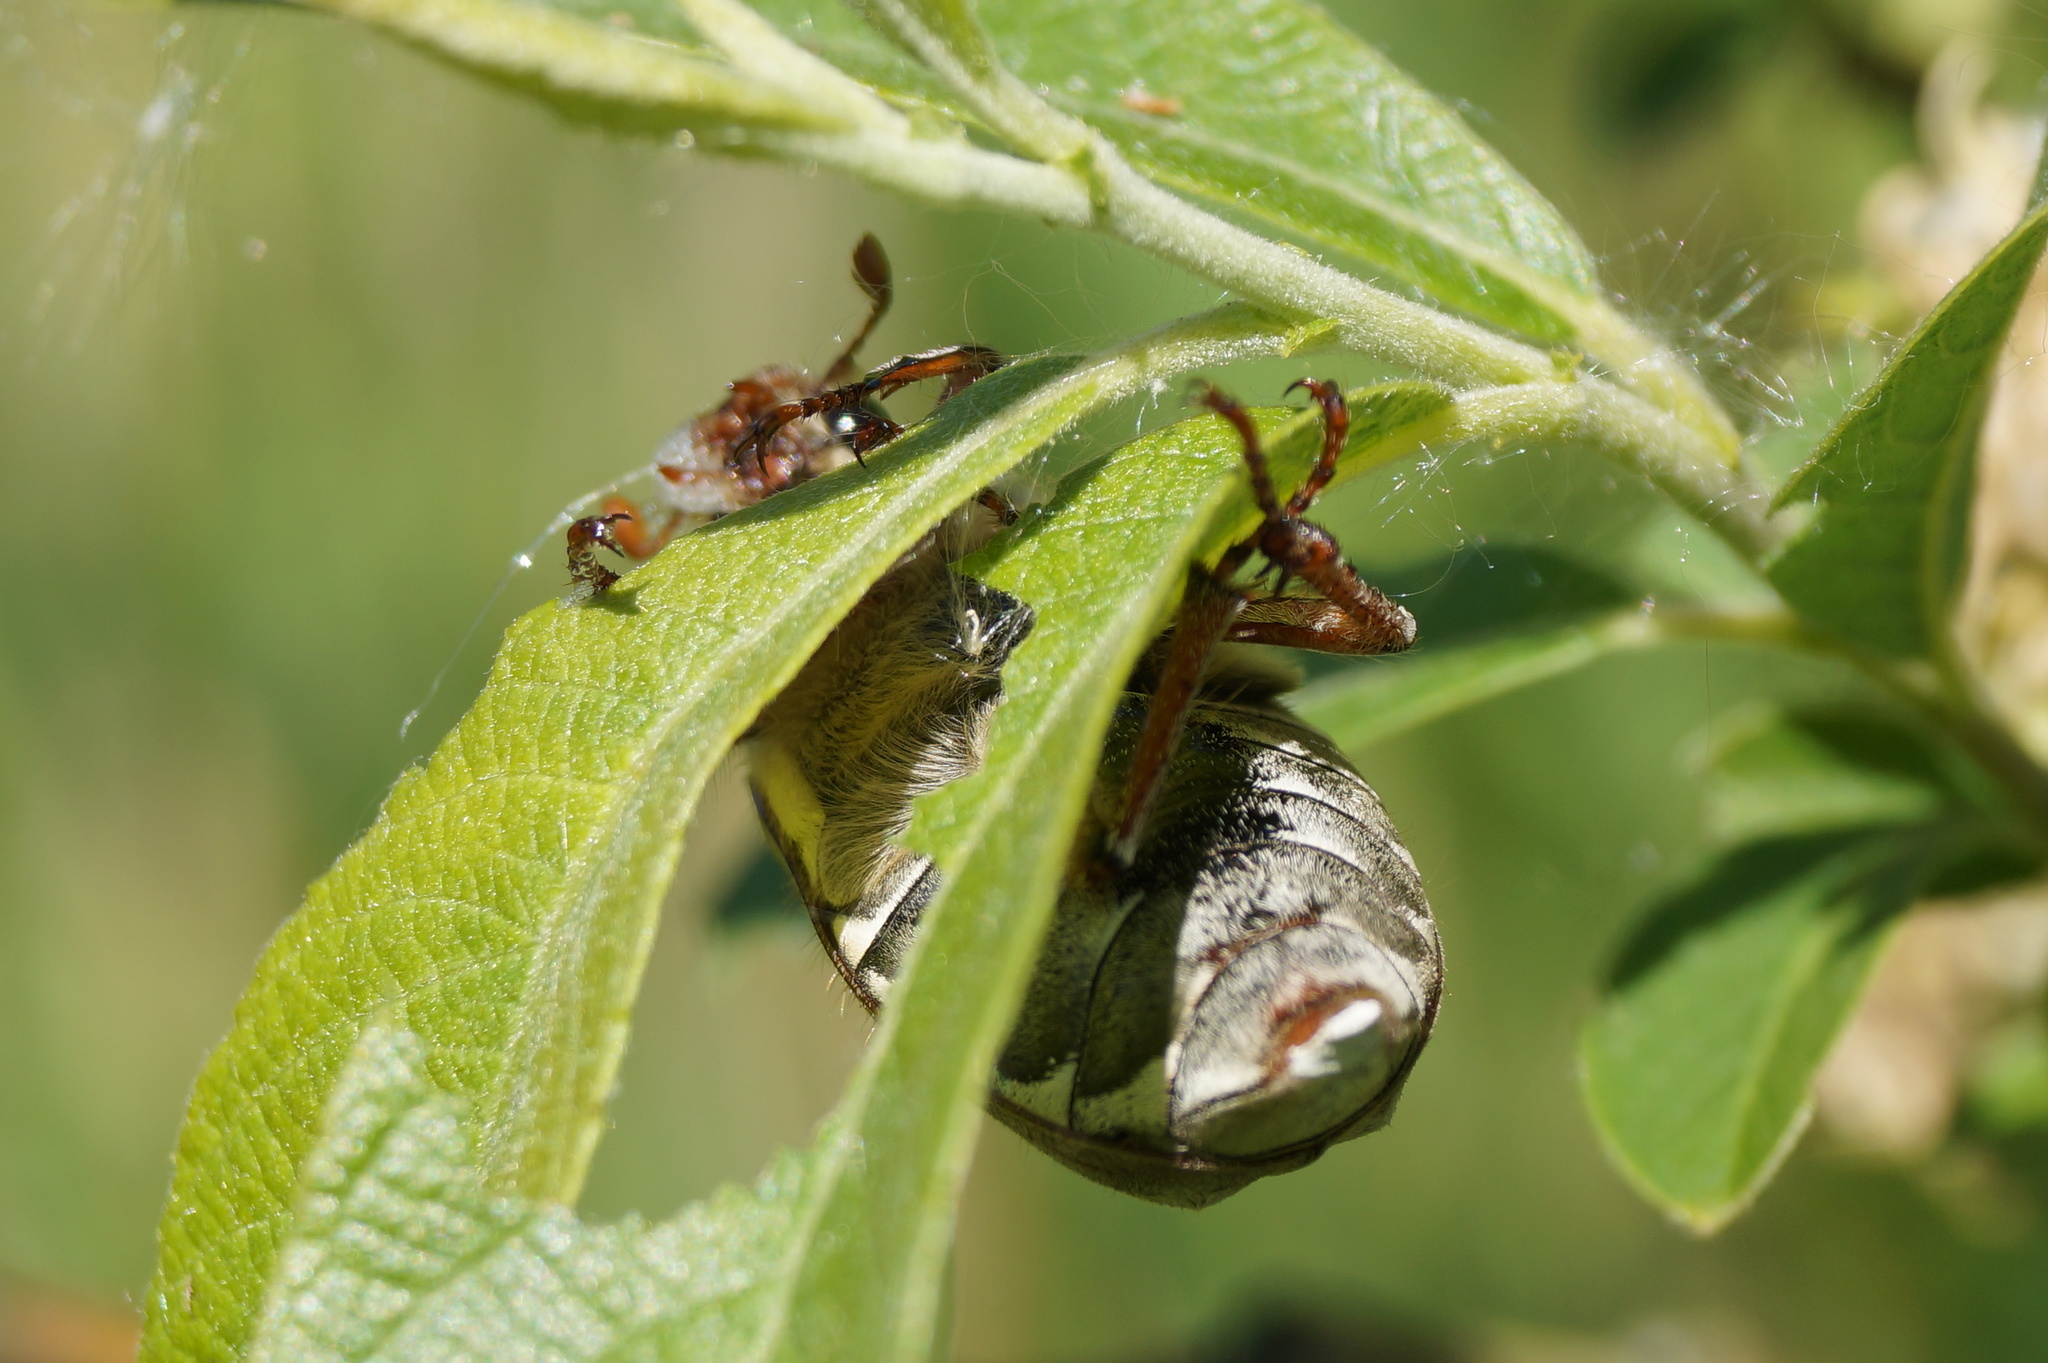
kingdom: Animalia
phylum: Arthropoda
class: Insecta
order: Coleoptera
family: Scarabaeidae
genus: Melolontha
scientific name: Melolontha melolontha
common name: Cockchafer maybeetle
